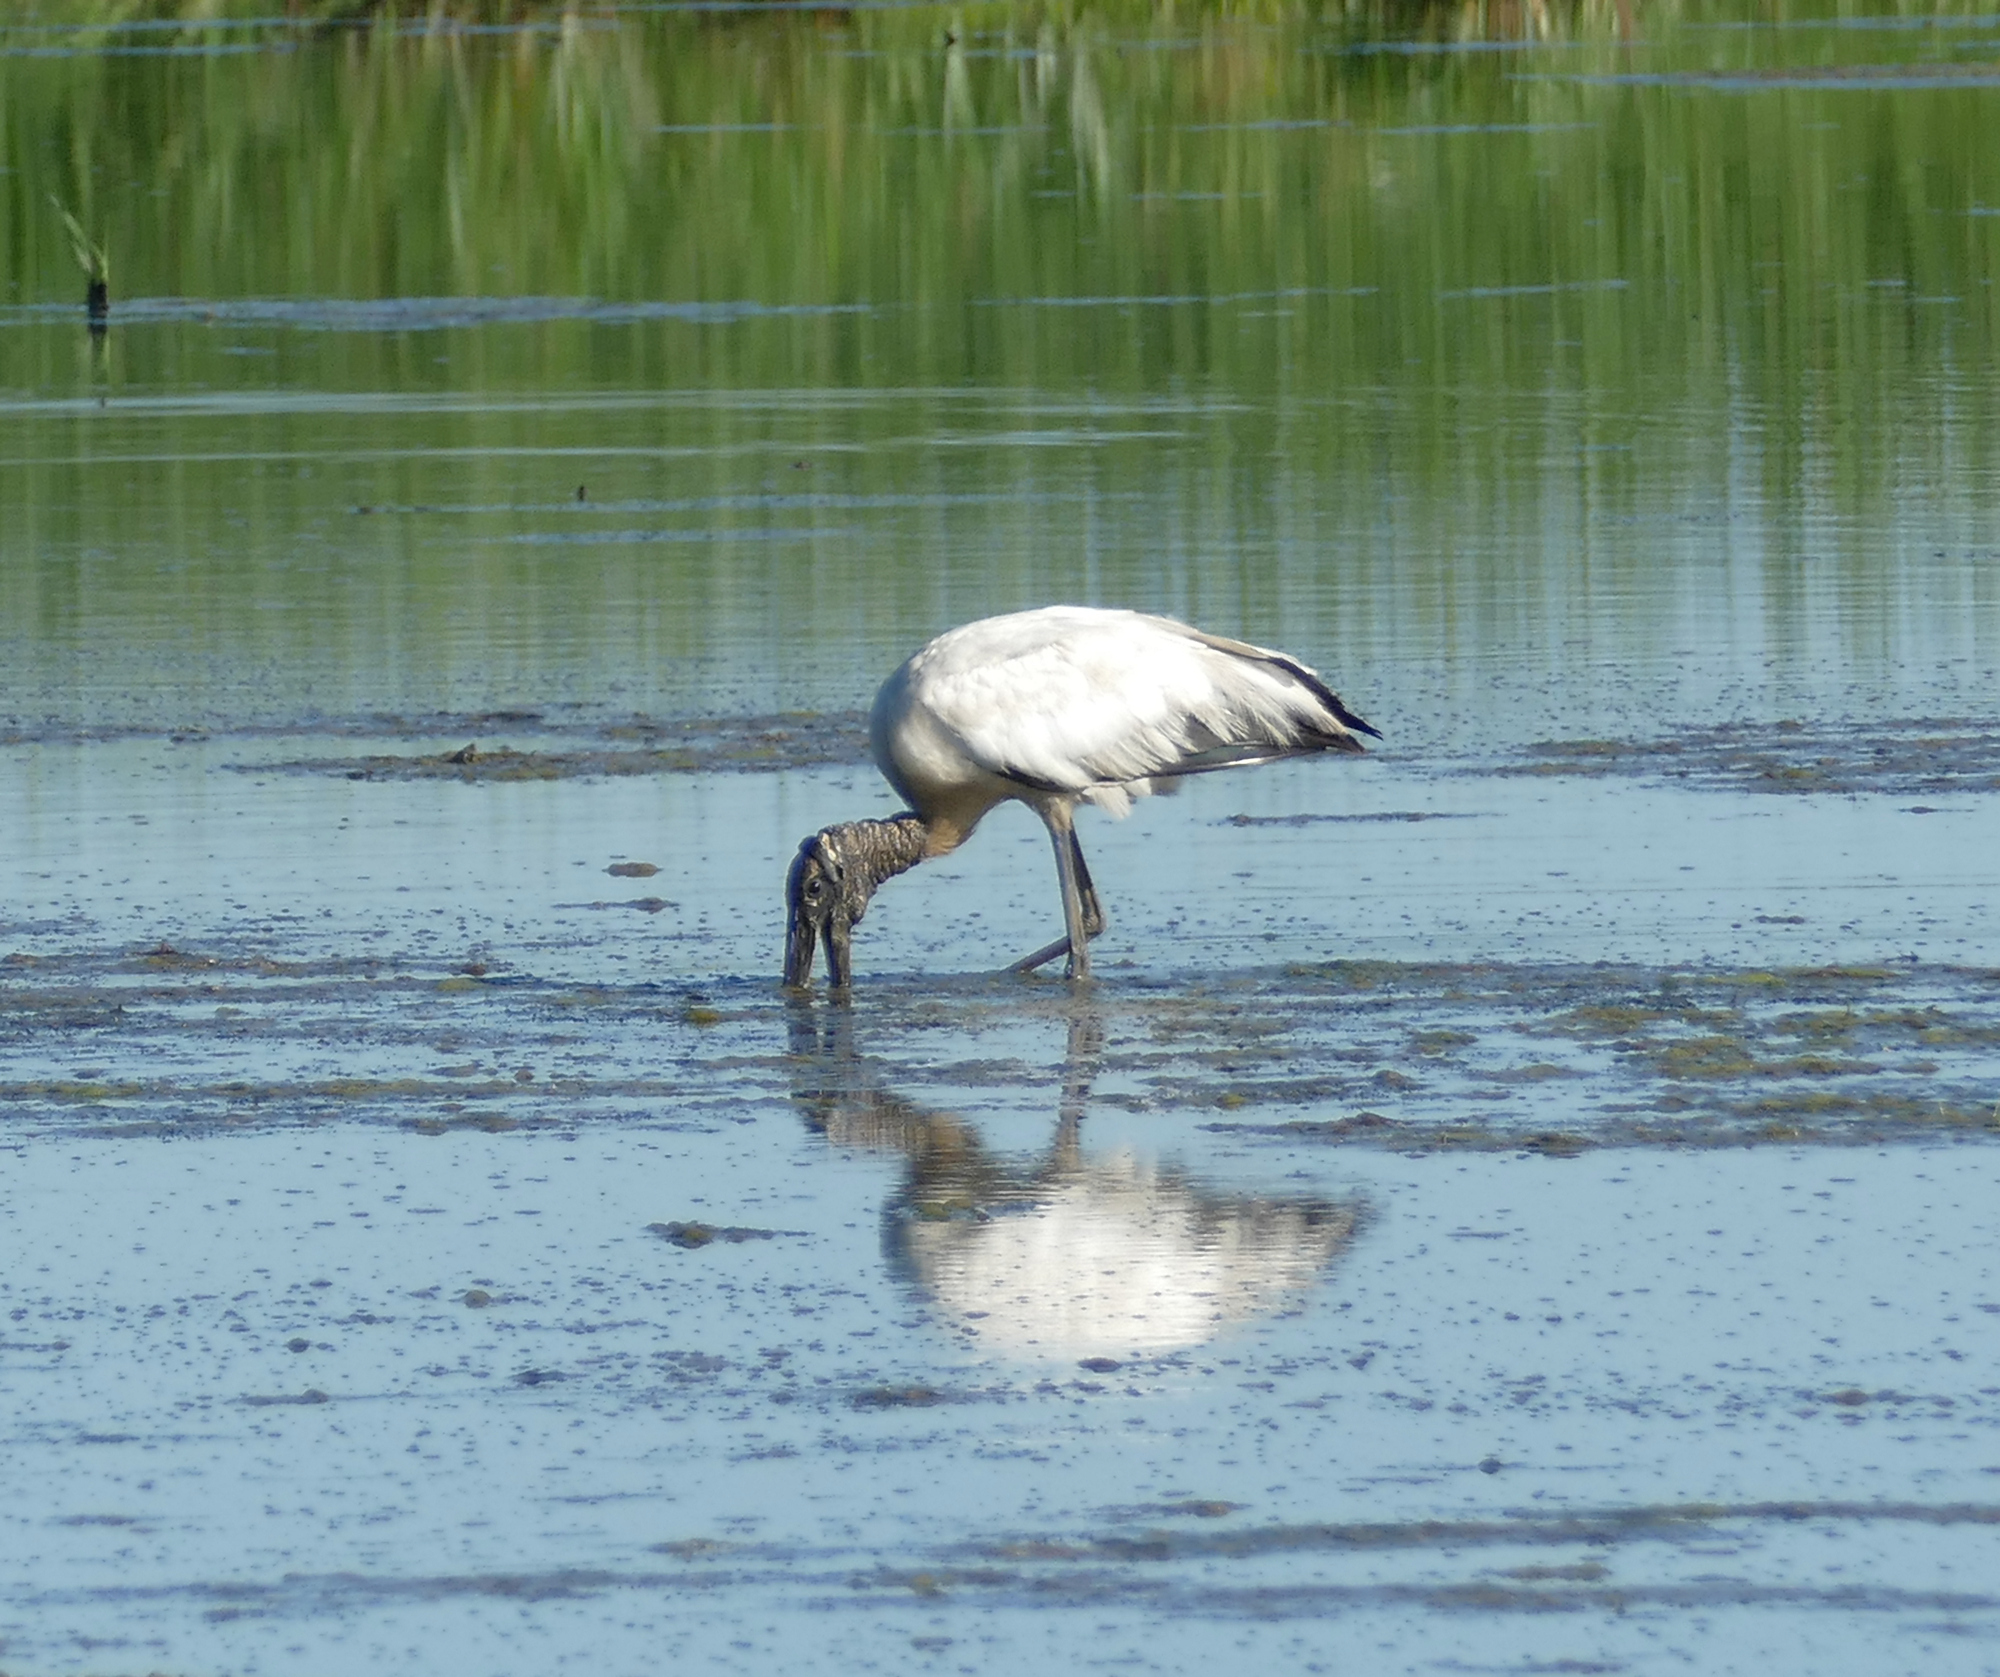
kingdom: Animalia
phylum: Chordata
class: Aves
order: Ciconiiformes
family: Ciconiidae
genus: Mycteria
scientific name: Mycteria americana
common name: Wood stork
